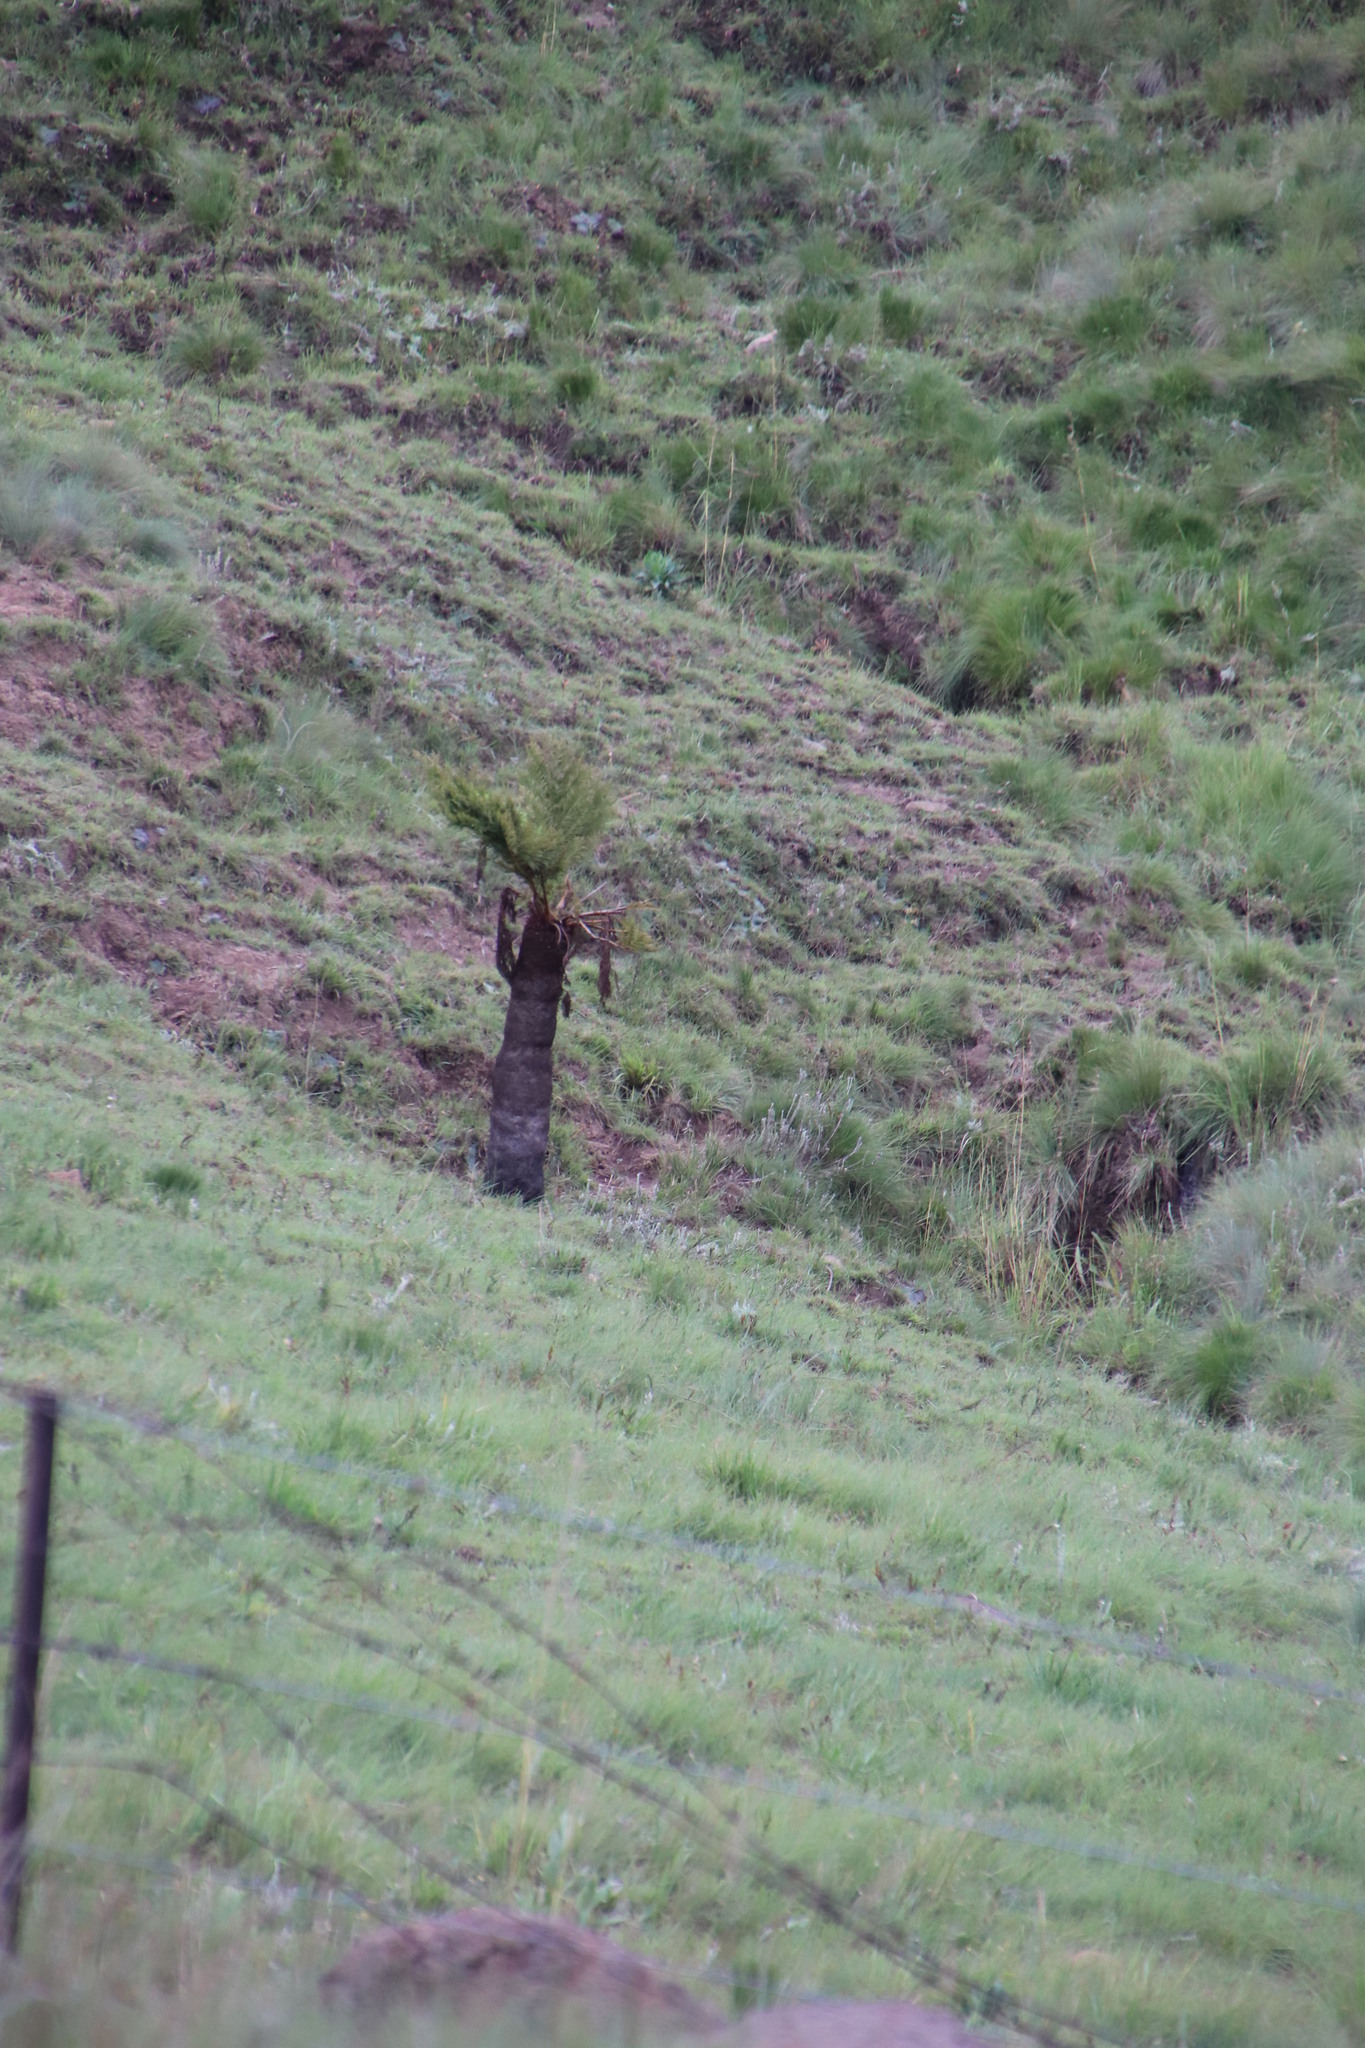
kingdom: Plantae
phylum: Tracheophyta
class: Polypodiopsida
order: Cyatheales
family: Cyatheaceae
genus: Alsophila
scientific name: Alsophila dregei
